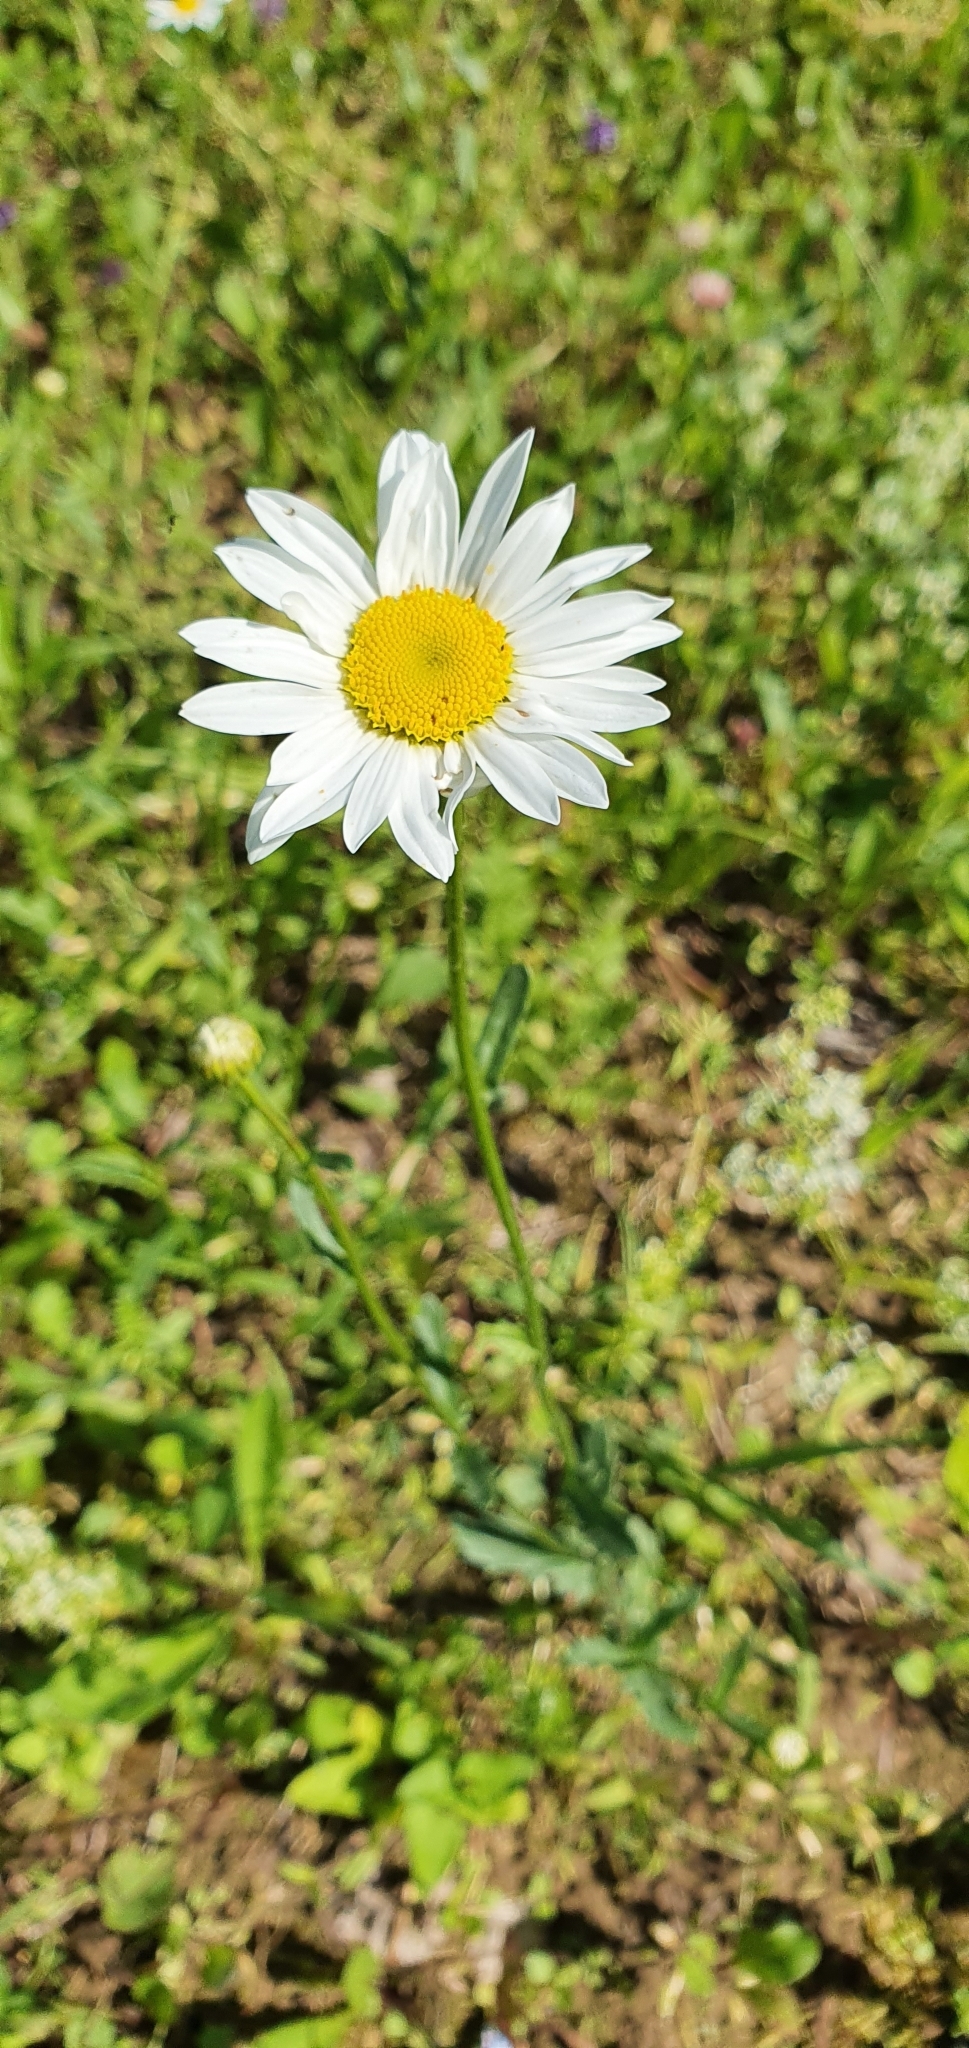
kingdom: Plantae
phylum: Tracheophyta
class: Magnoliopsida
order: Asterales
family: Asteraceae
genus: Leucanthemum
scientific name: Leucanthemum vulgare
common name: Oxeye daisy
